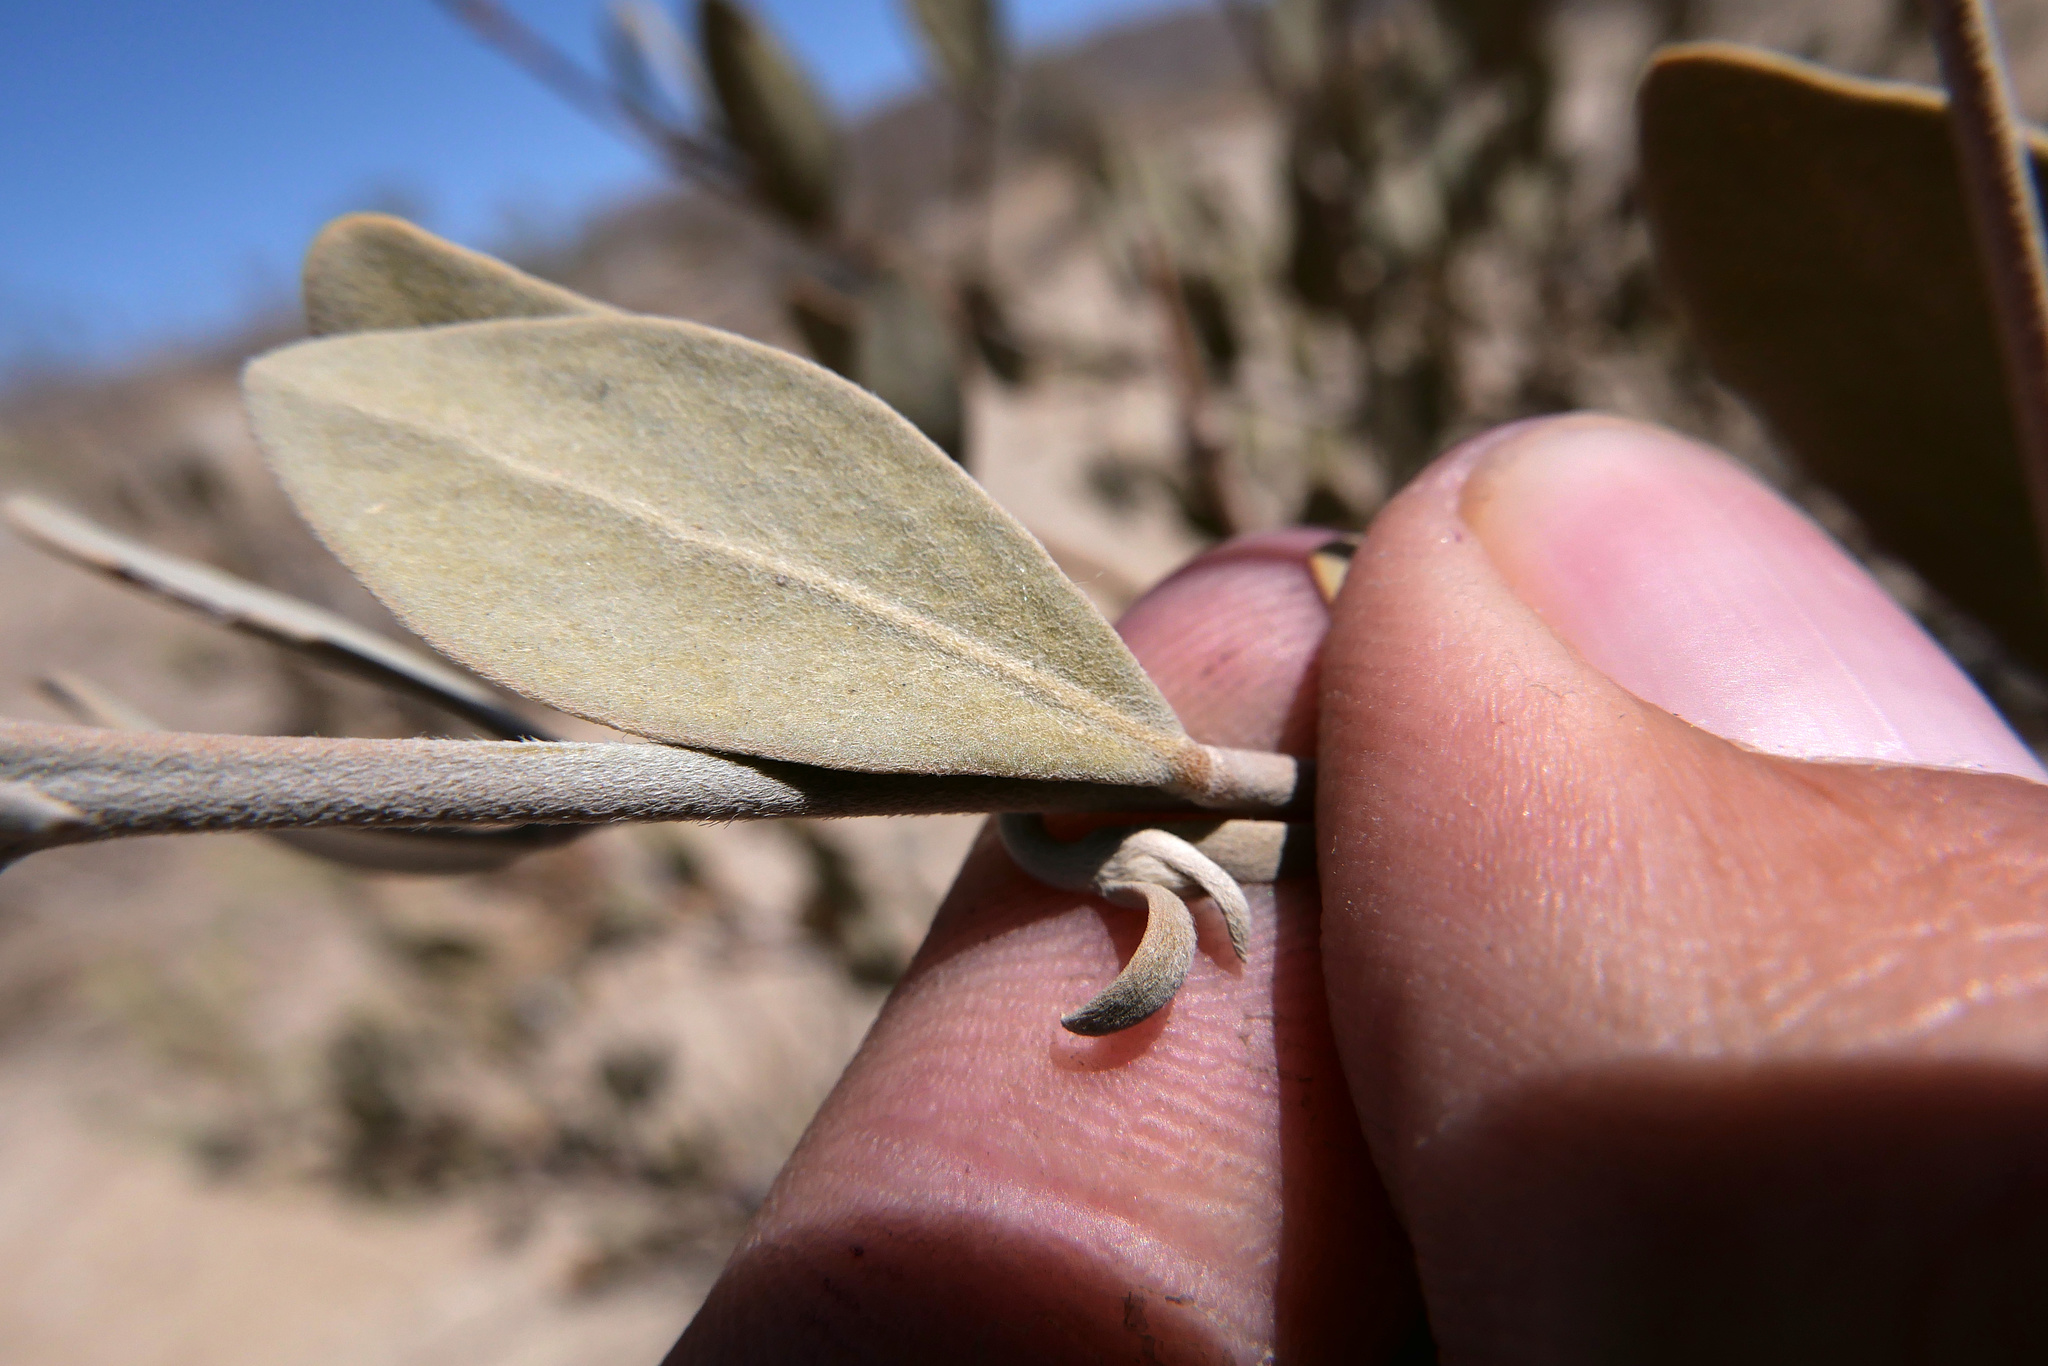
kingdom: Plantae
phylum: Tracheophyta
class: Magnoliopsida
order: Caryophyllales
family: Simmondsiaceae
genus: Simmondsia
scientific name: Simmondsia chinensis
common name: Jojoba
